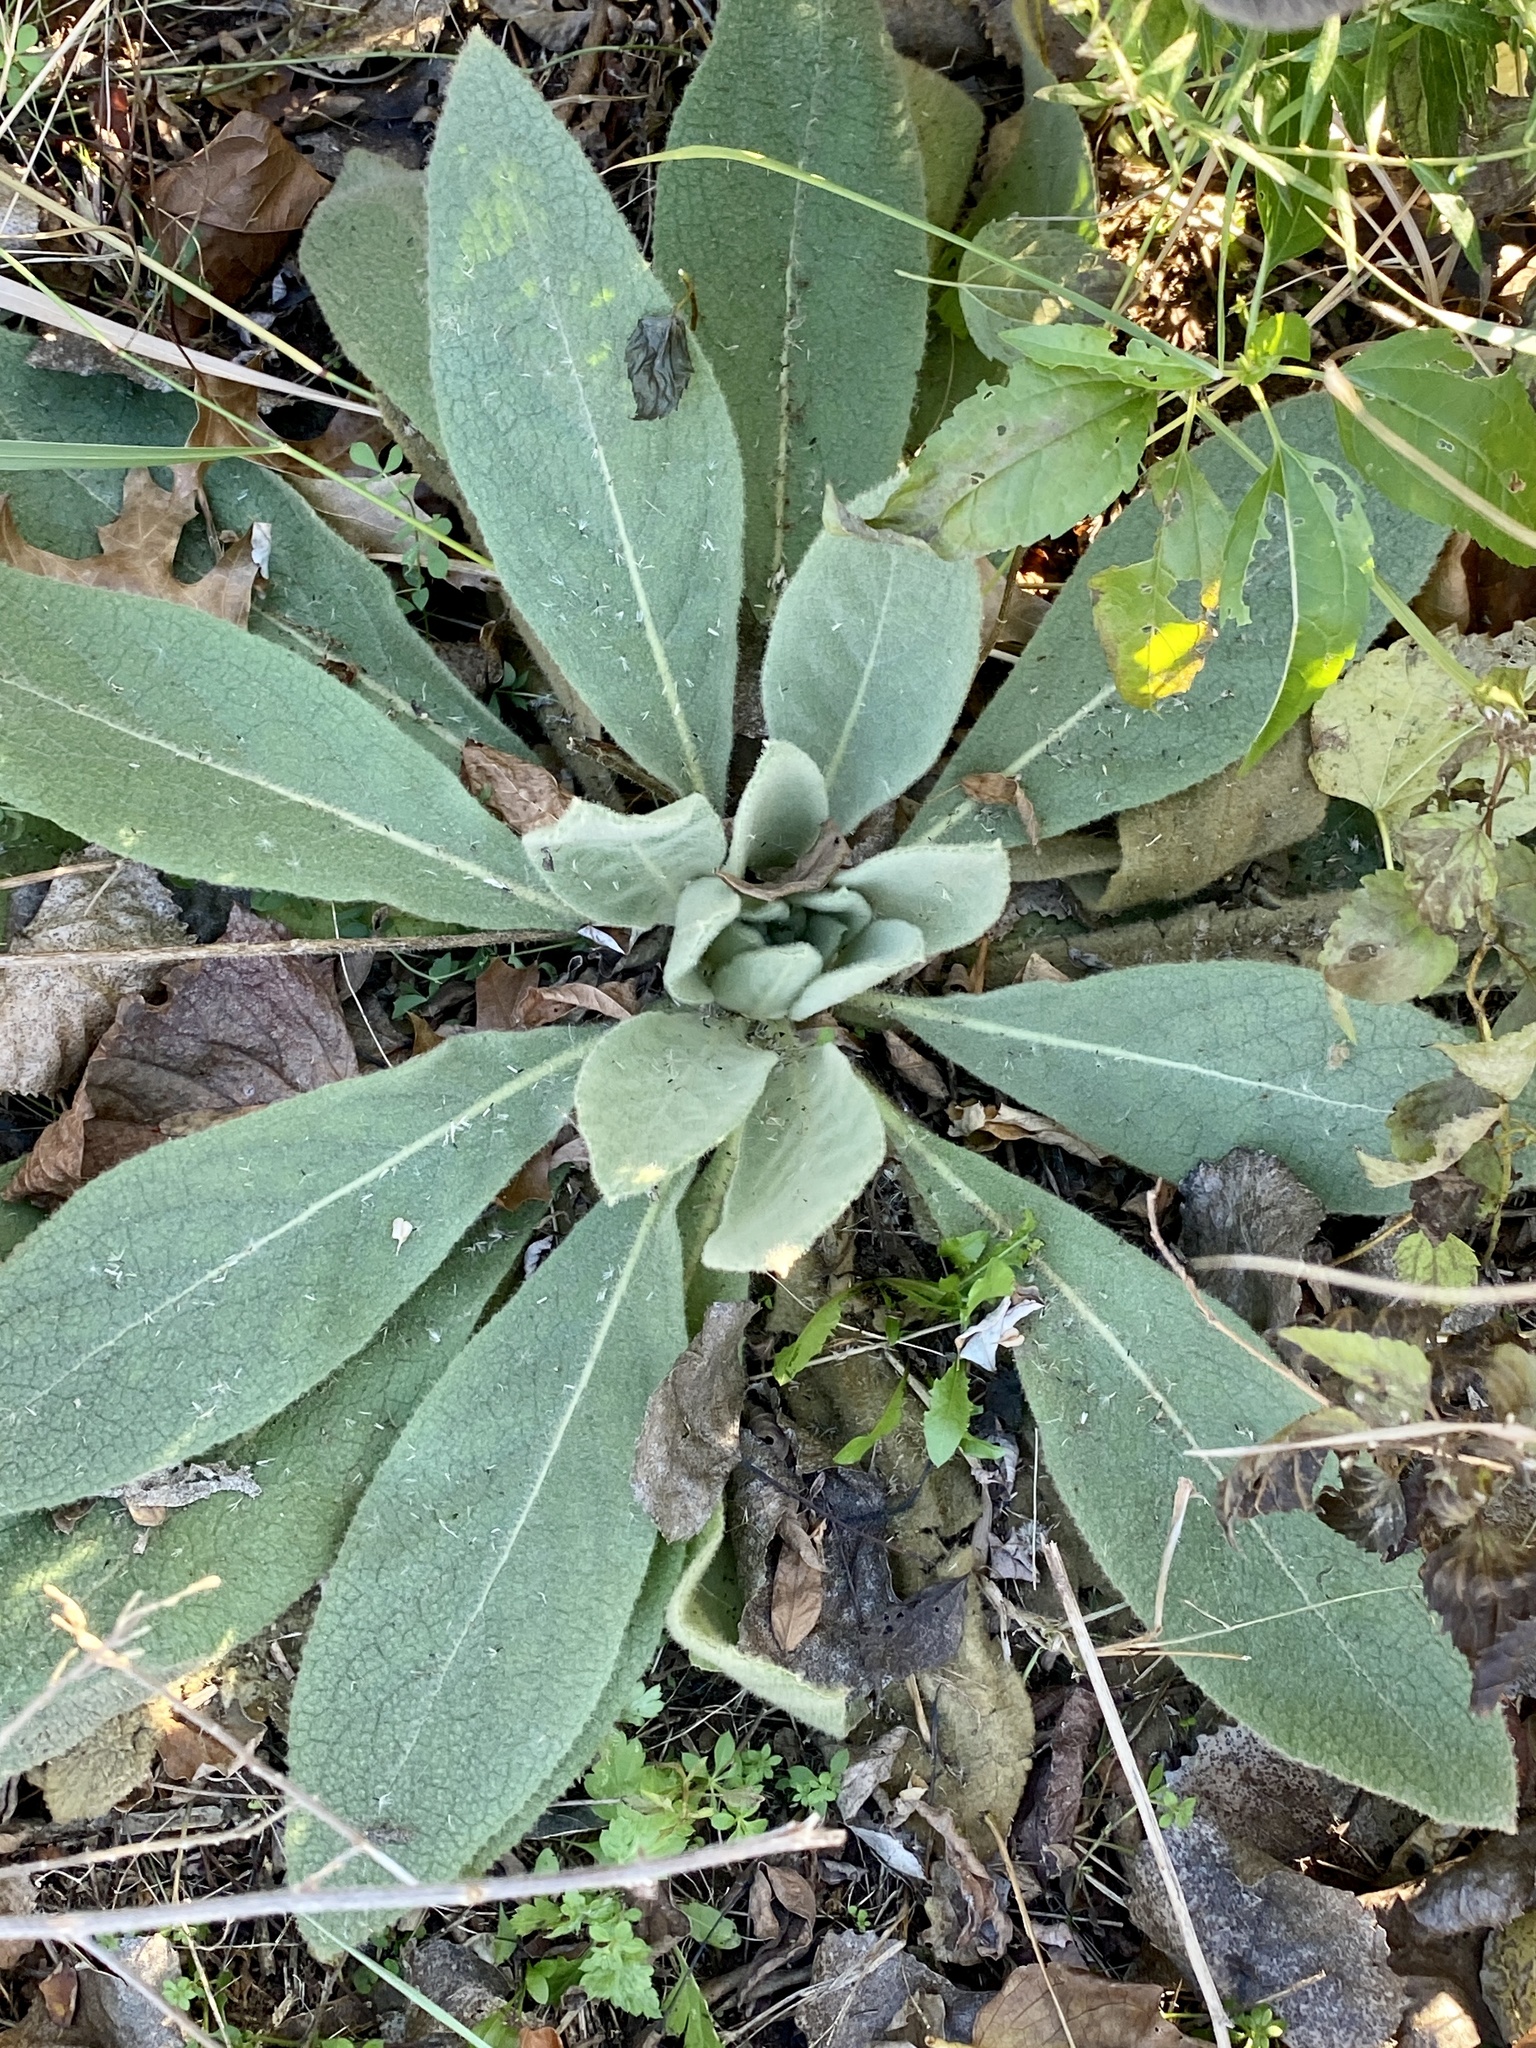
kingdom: Plantae
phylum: Tracheophyta
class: Magnoliopsida
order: Lamiales
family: Scrophulariaceae
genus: Verbascum
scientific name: Verbascum thapsus
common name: Common mullein
